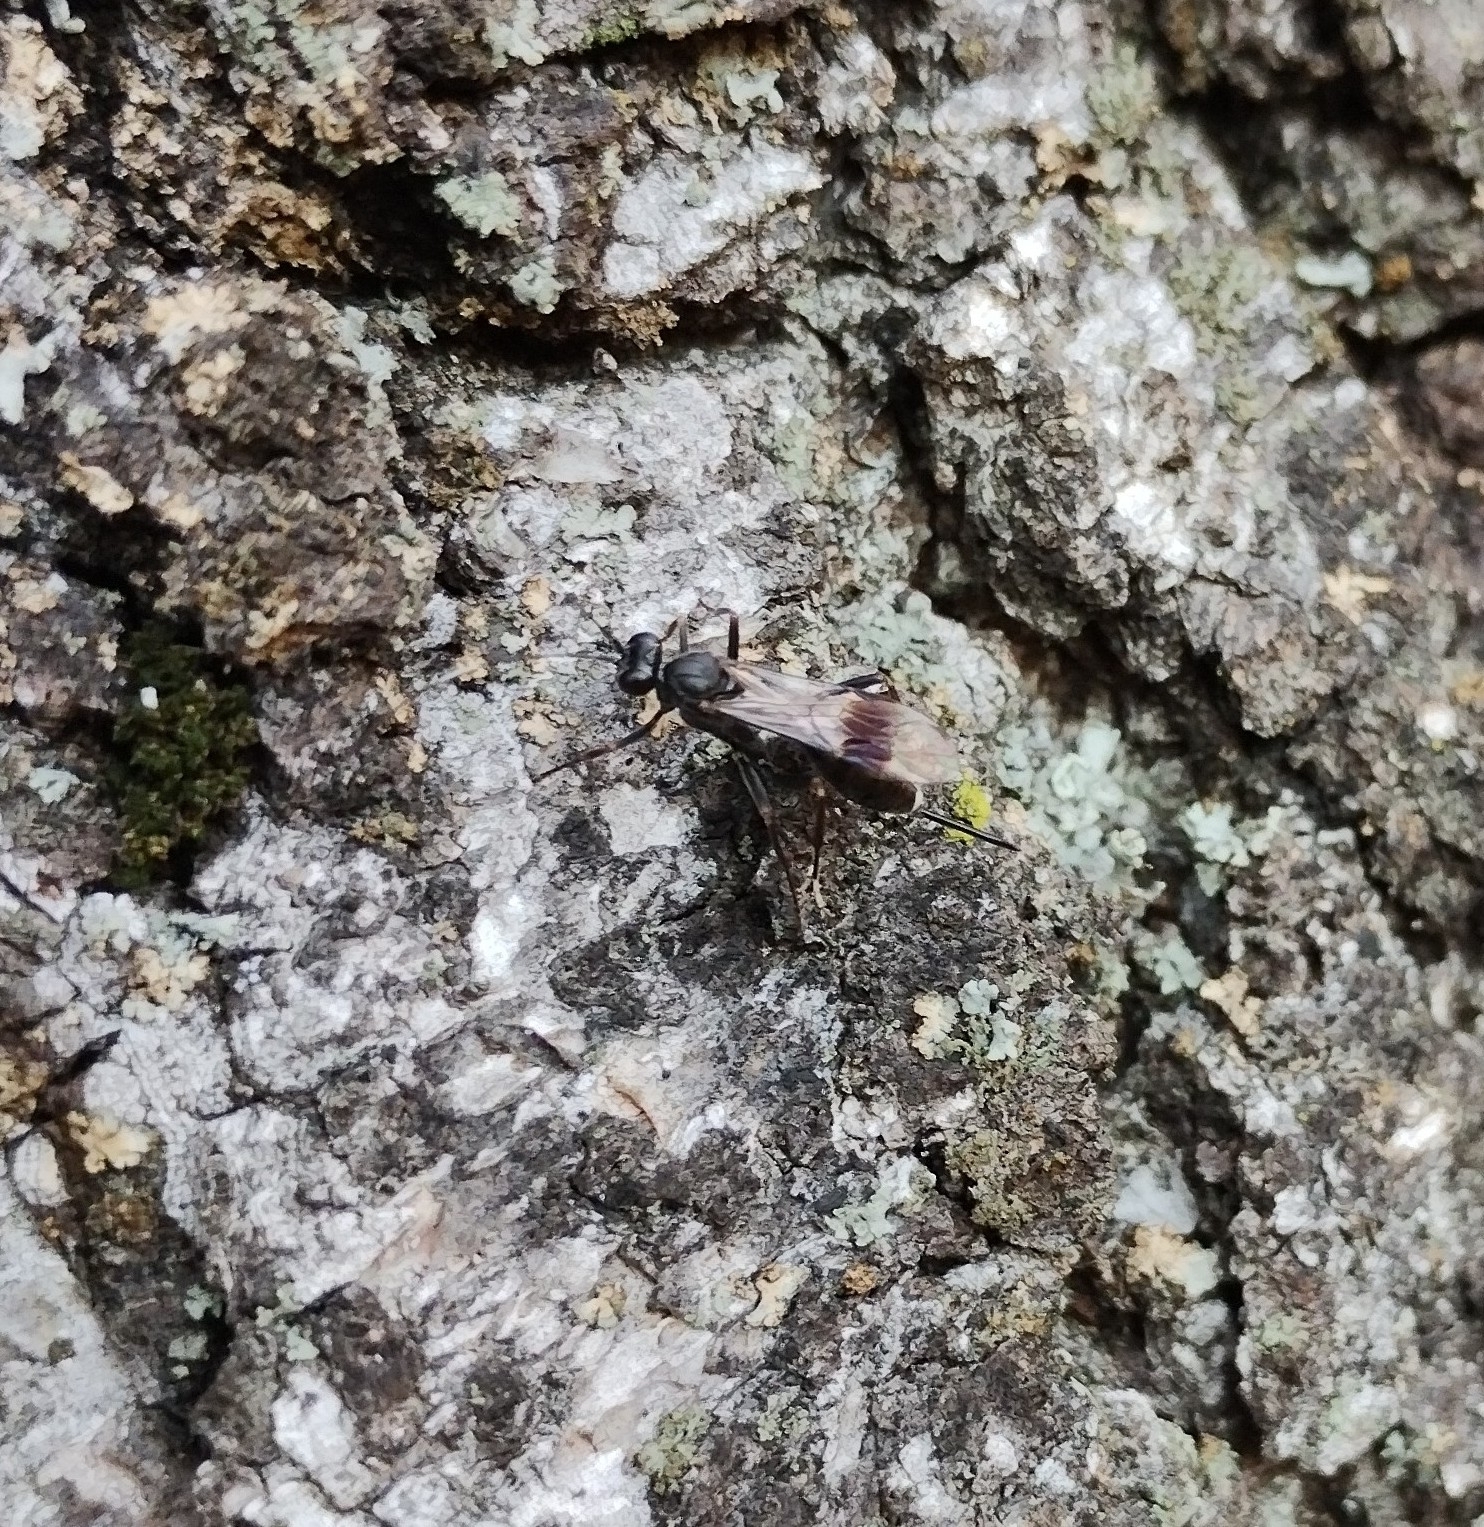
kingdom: Animalia
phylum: Arthropoda
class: Insecta
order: Hymenoptera
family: Ichneumonidae
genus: Nippocryptus
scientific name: Nippocryptus vittatorius
